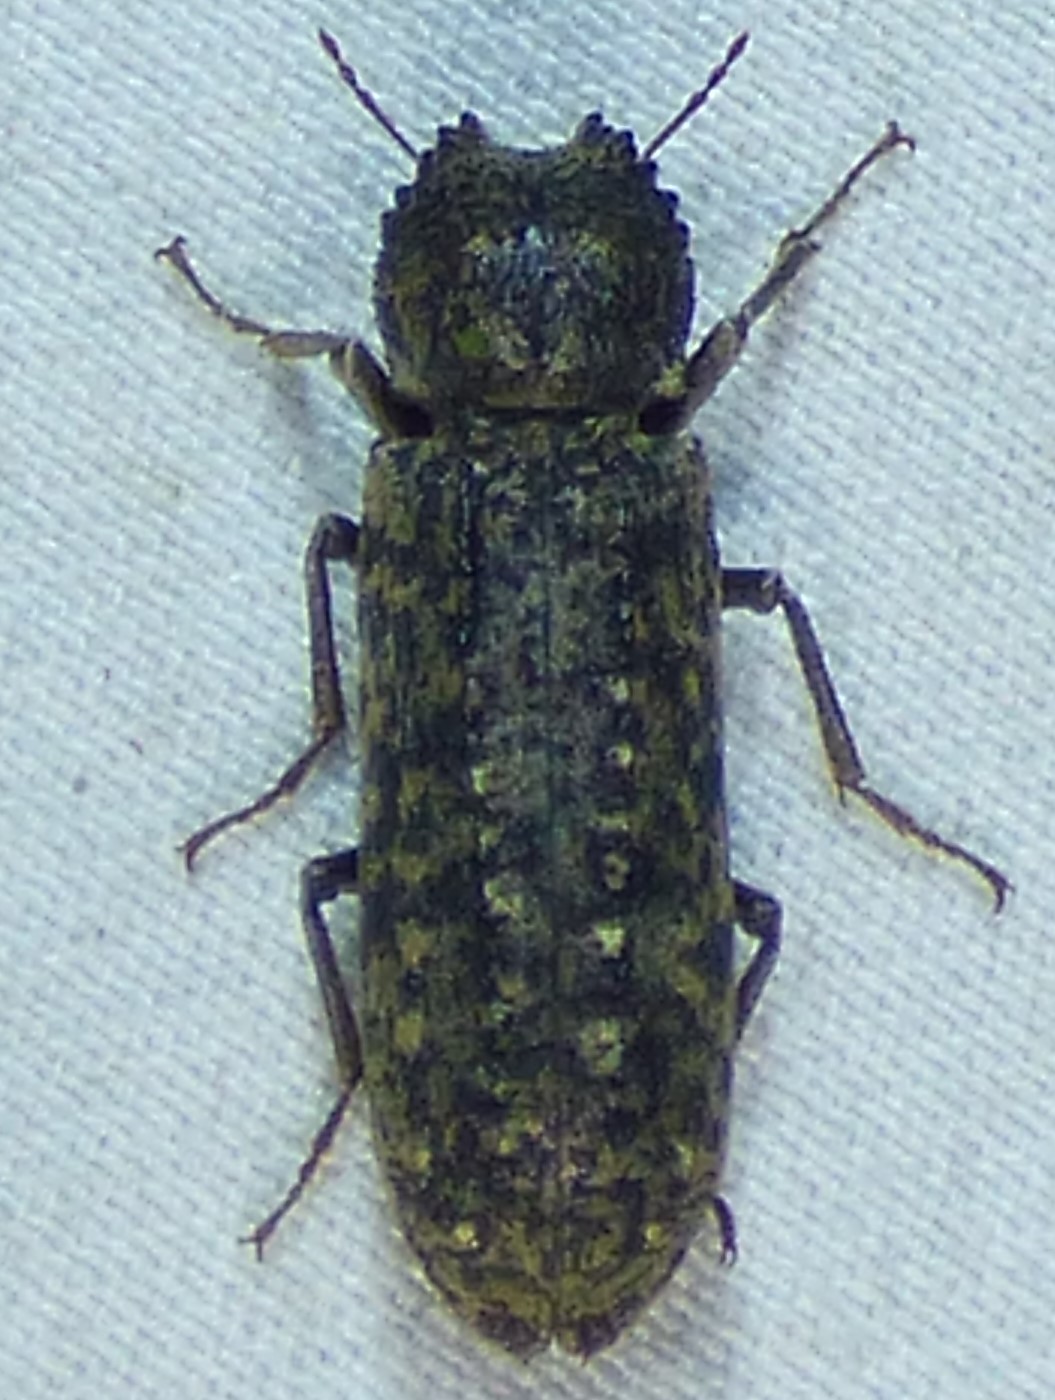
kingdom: Animalia
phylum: Arthropoda
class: Insecta
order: Coleoptera
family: Bostrichidae
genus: Lichenophanes
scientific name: Lichenophanes bicornis
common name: Two-horned powder-post beetle
